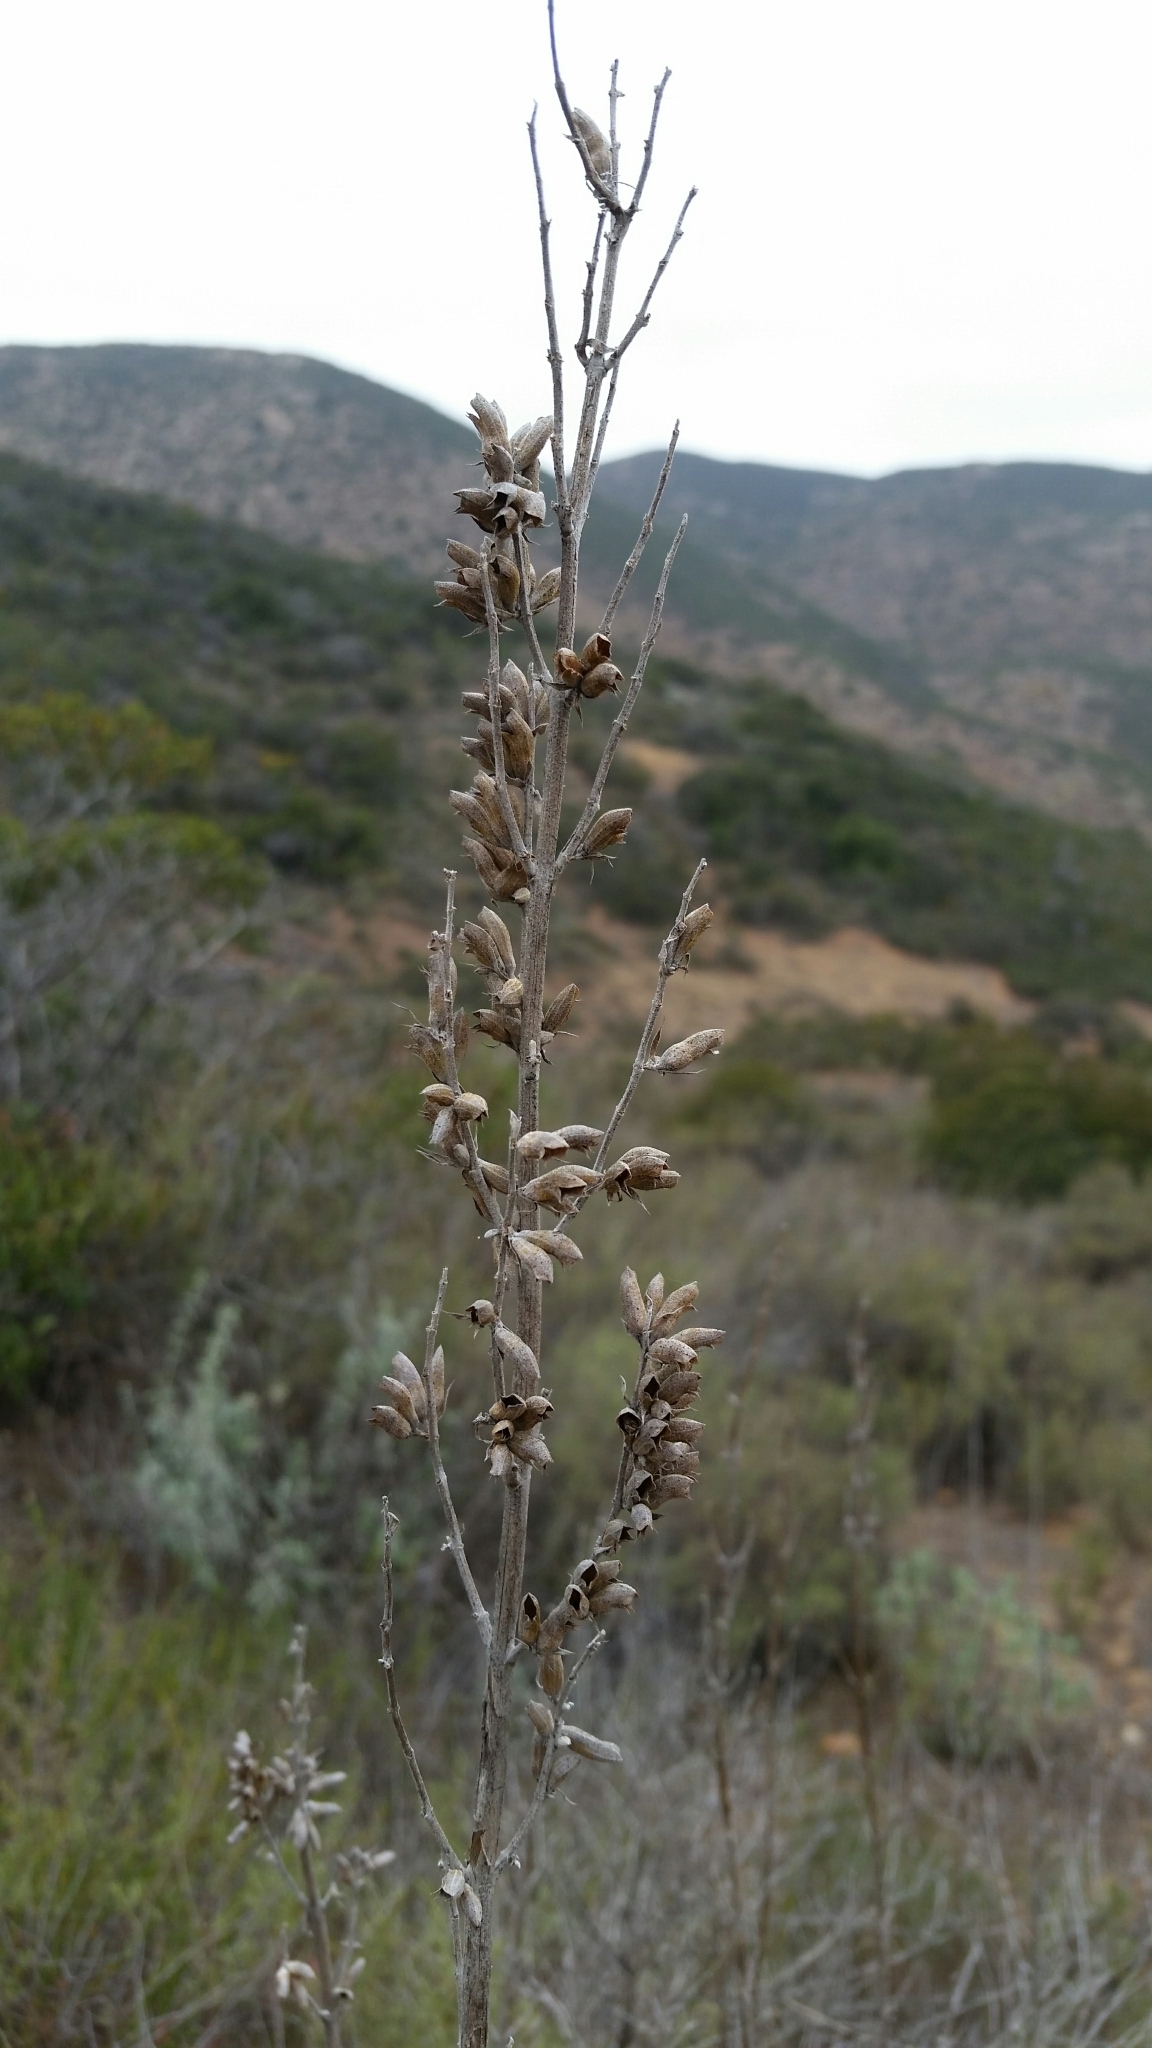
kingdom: Plantae
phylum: Tracheophyta
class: Magnoliopsida
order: Lamiales
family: Lamiaceae
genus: Salvia
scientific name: Salvia apiana
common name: White sage
